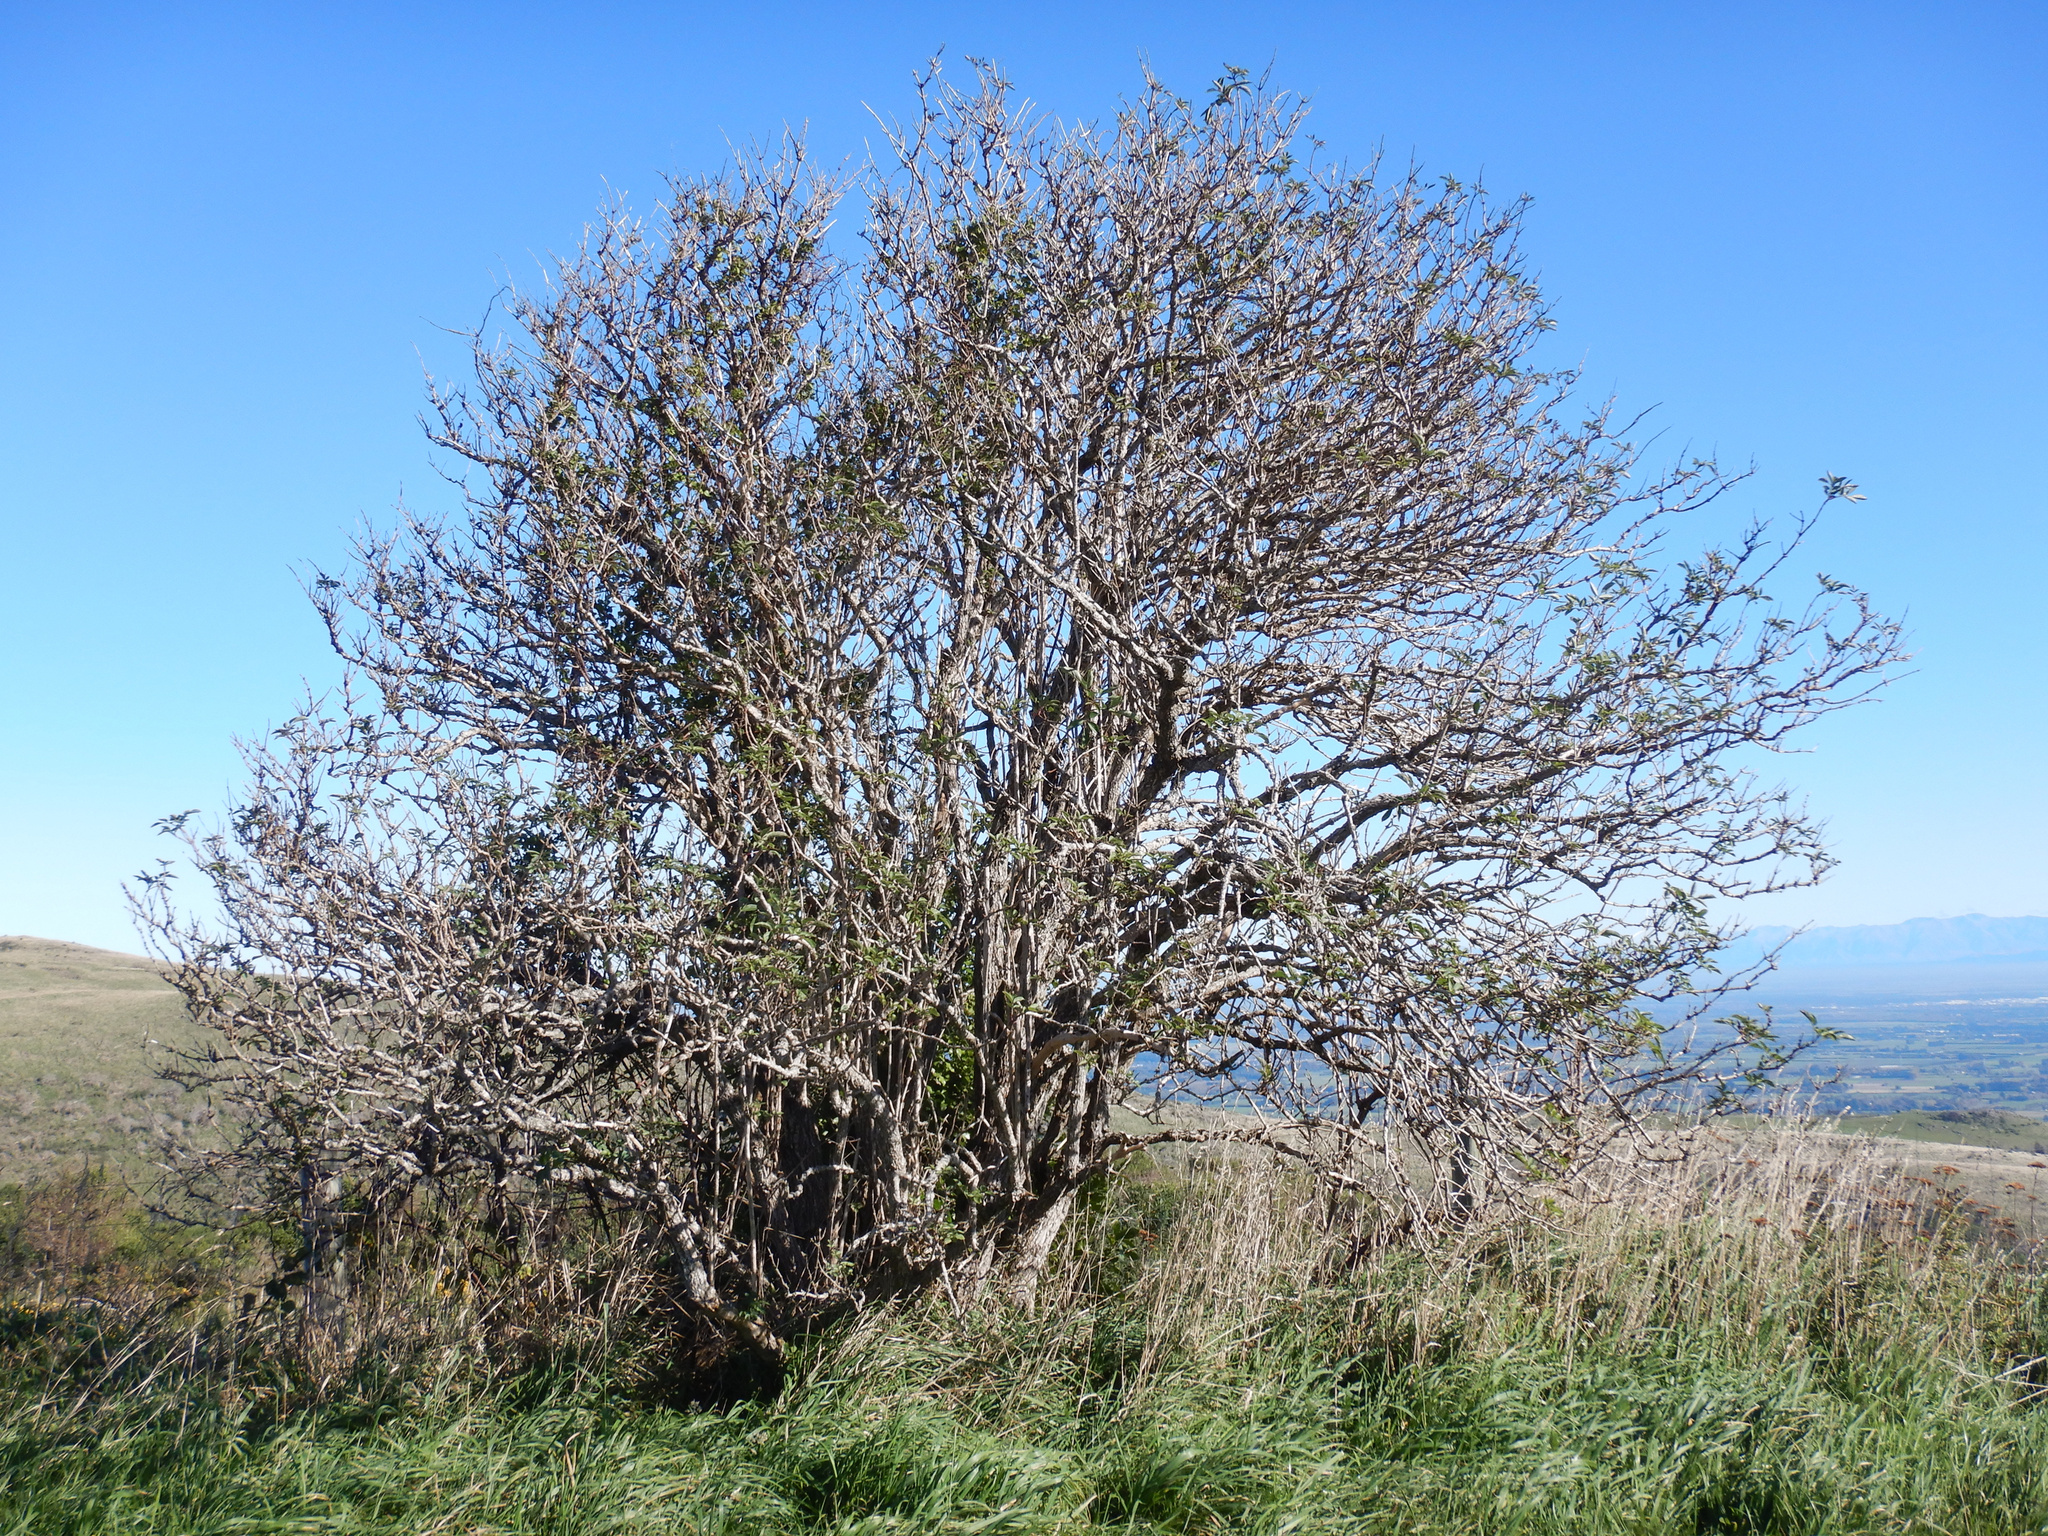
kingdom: Plantae
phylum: Tracheophyta
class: Magnoliopsida
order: Dipsacales
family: Viburnaceae
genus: Sambucus
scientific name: Sambucus nigra
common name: Elder
